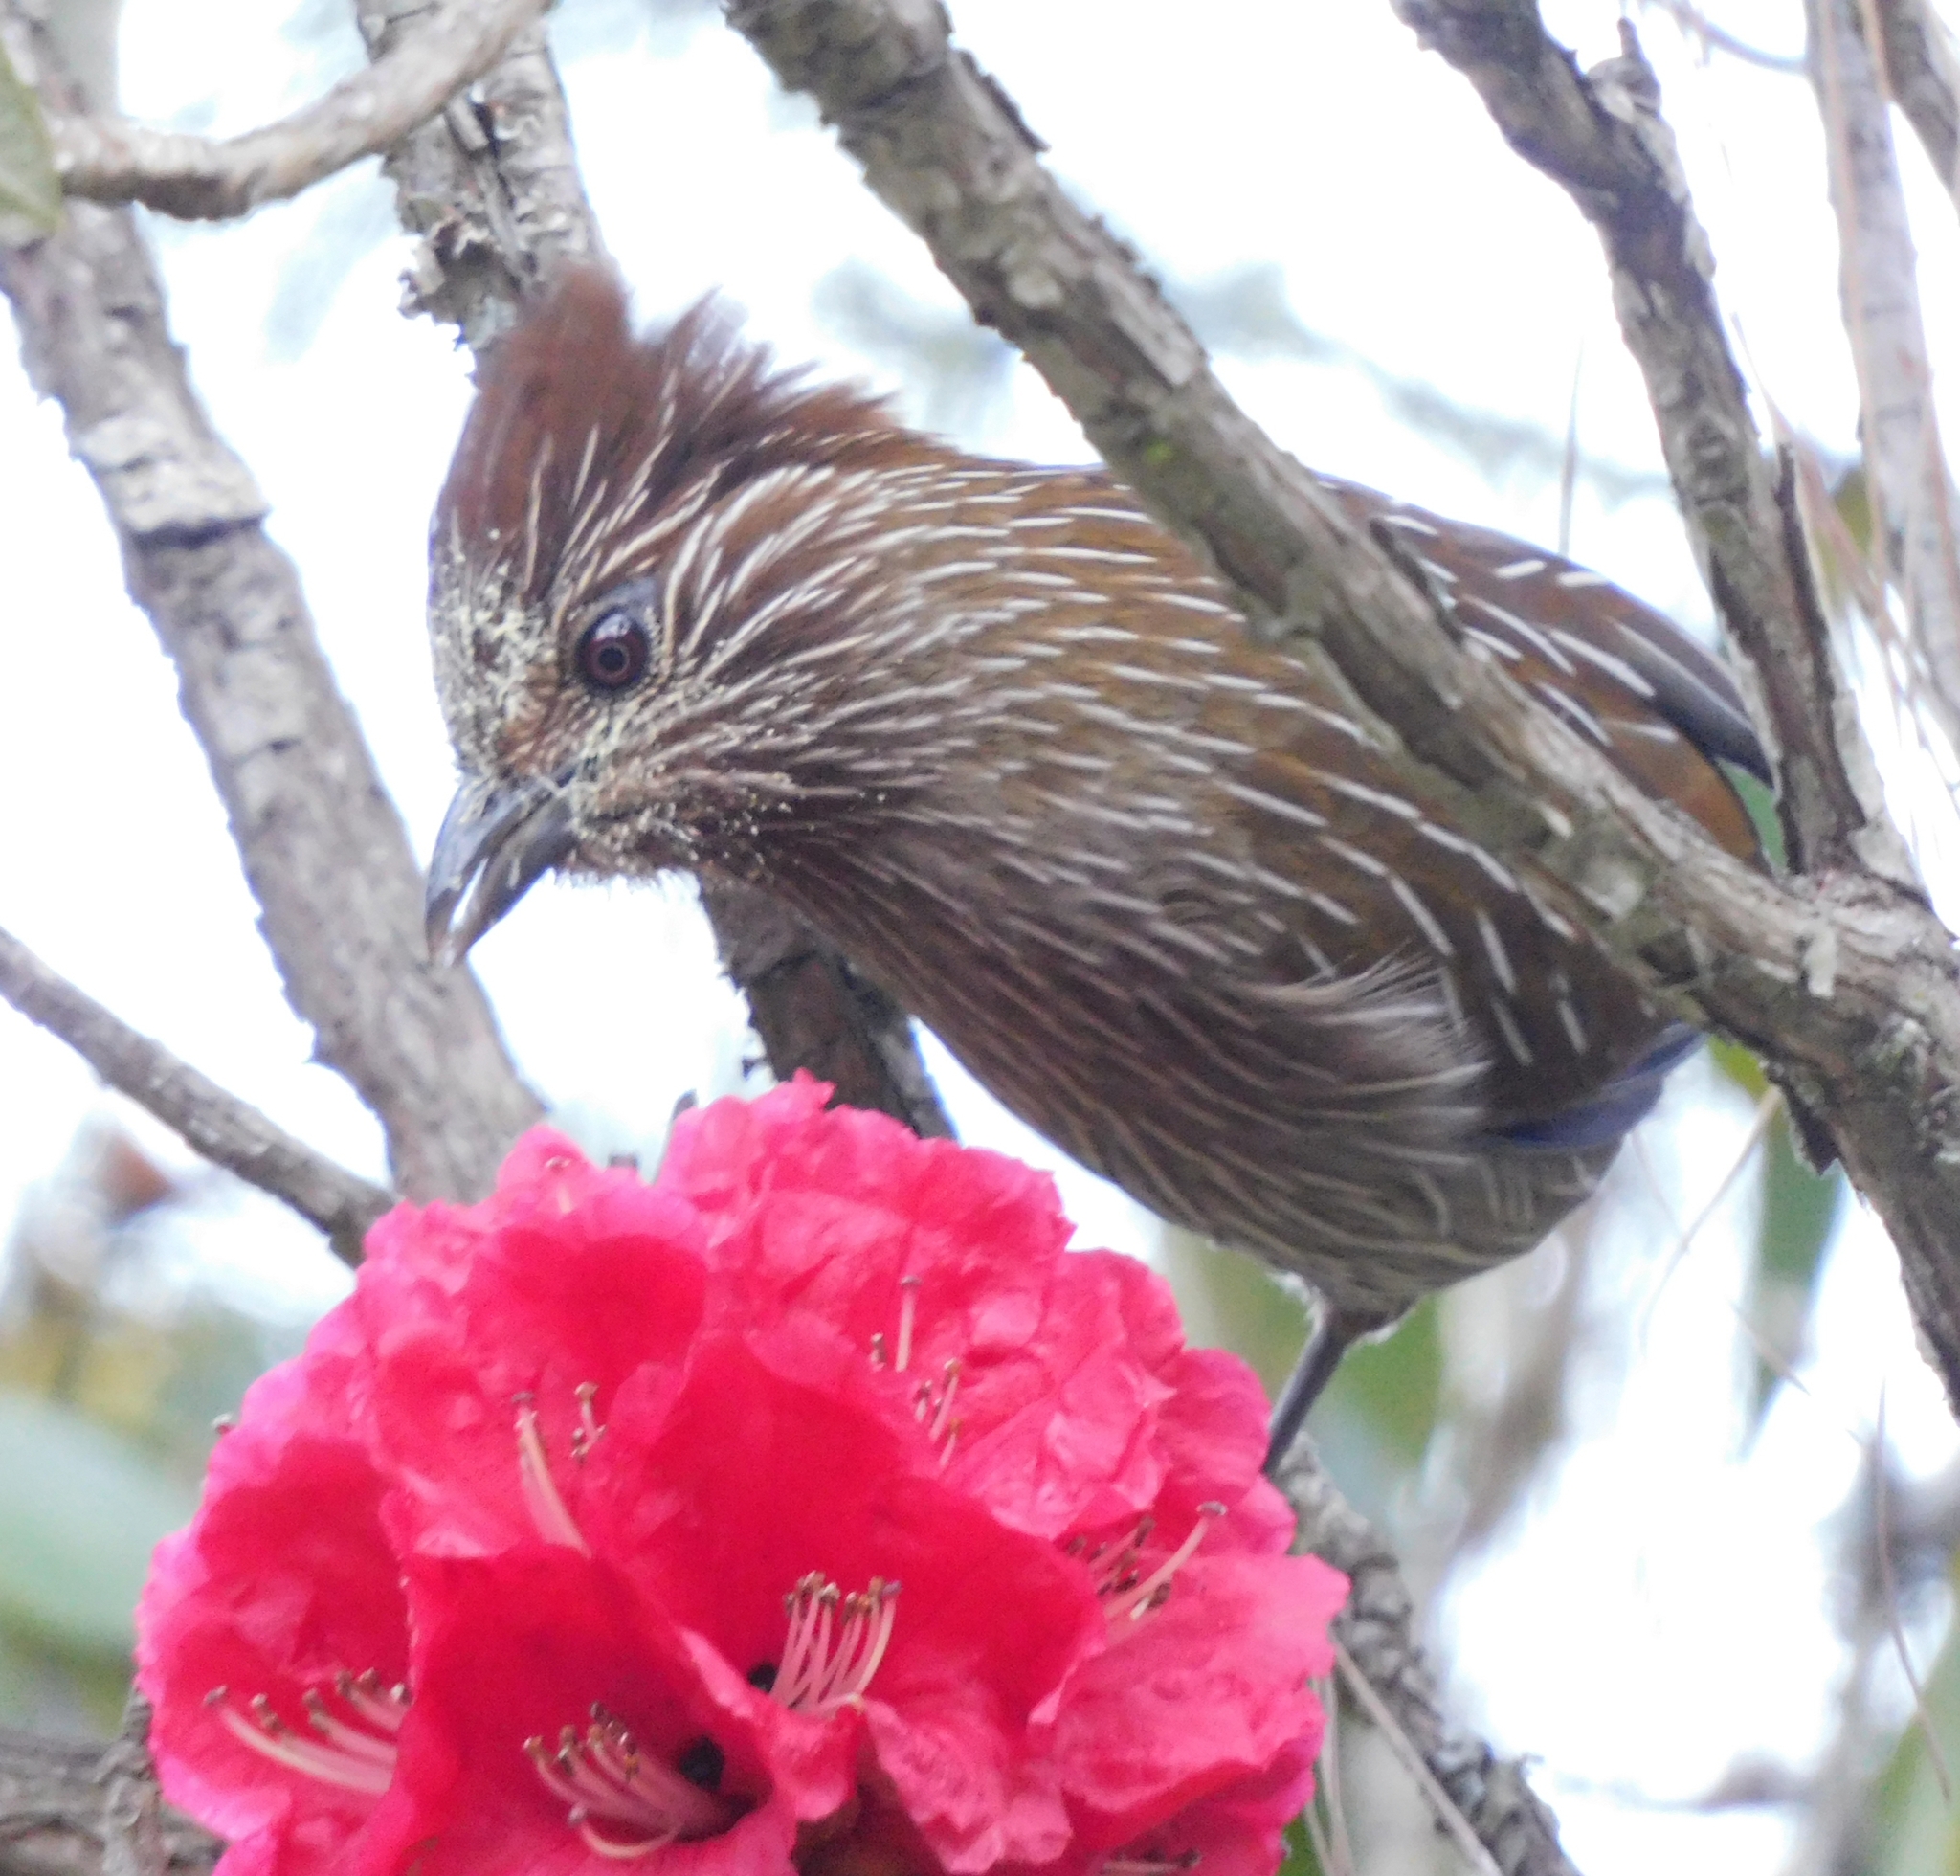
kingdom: Animalia
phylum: Chordata
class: Aves
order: Passeriformes
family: Leiothrichidae
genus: Garrulax
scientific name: Garrulax striatus
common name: Striated laughingthrush
